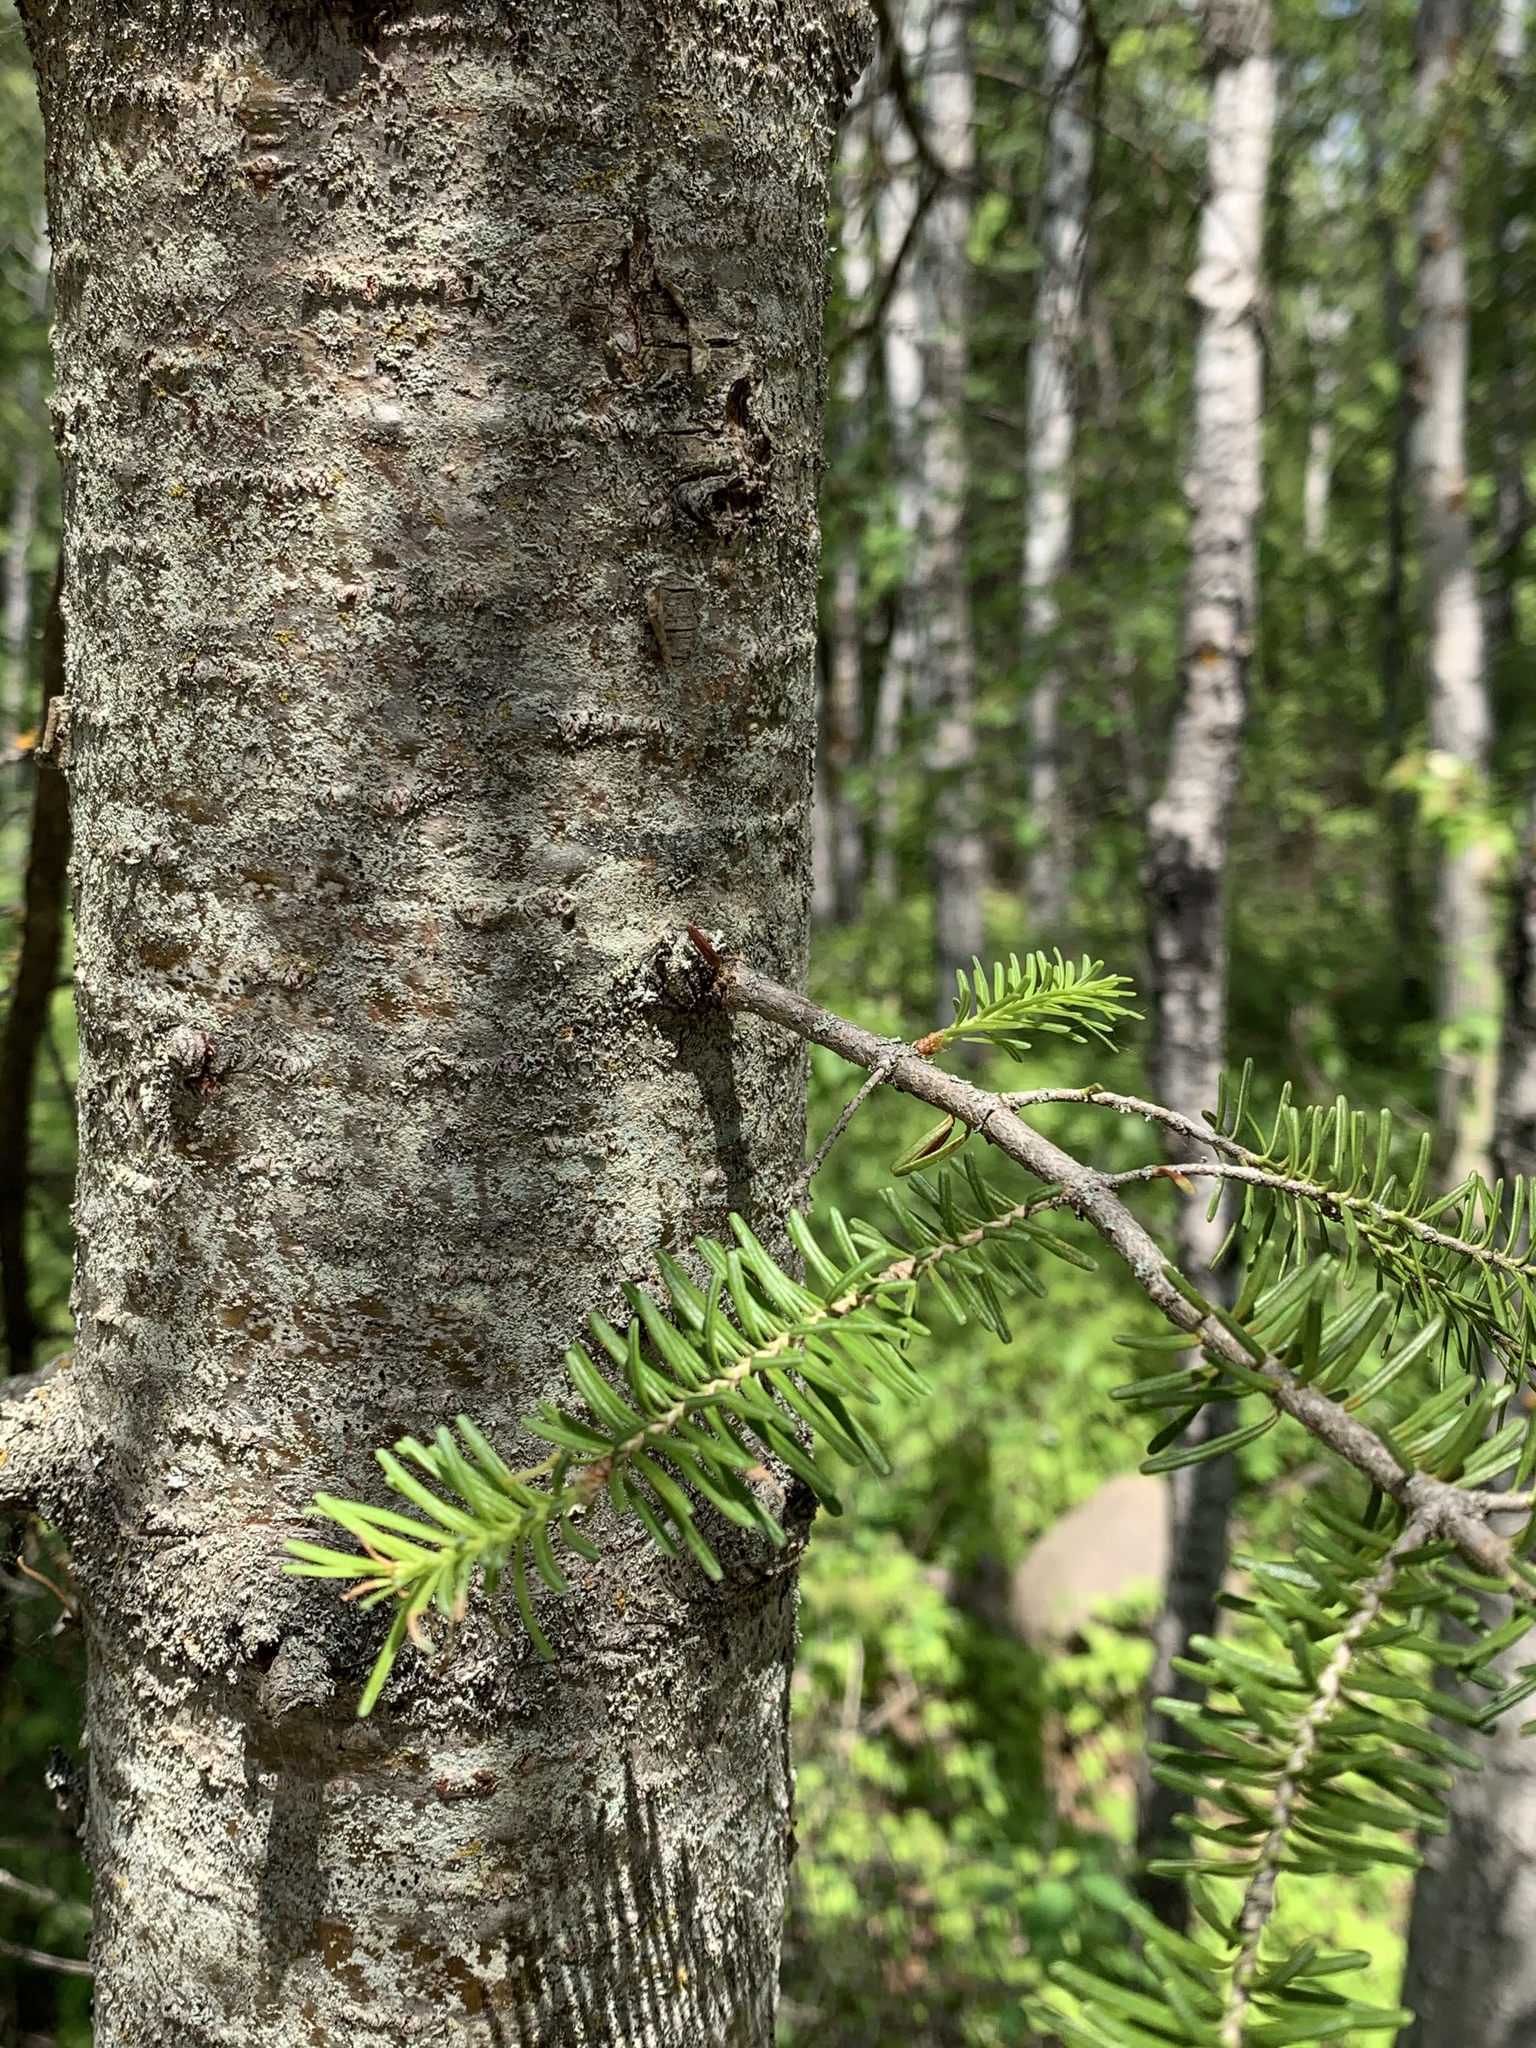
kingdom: Plantae
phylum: Tracheophyta
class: Pinopsida
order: Pinales
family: Pinaceae
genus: Abies
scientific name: Abies balsamea
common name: Balsam fir
